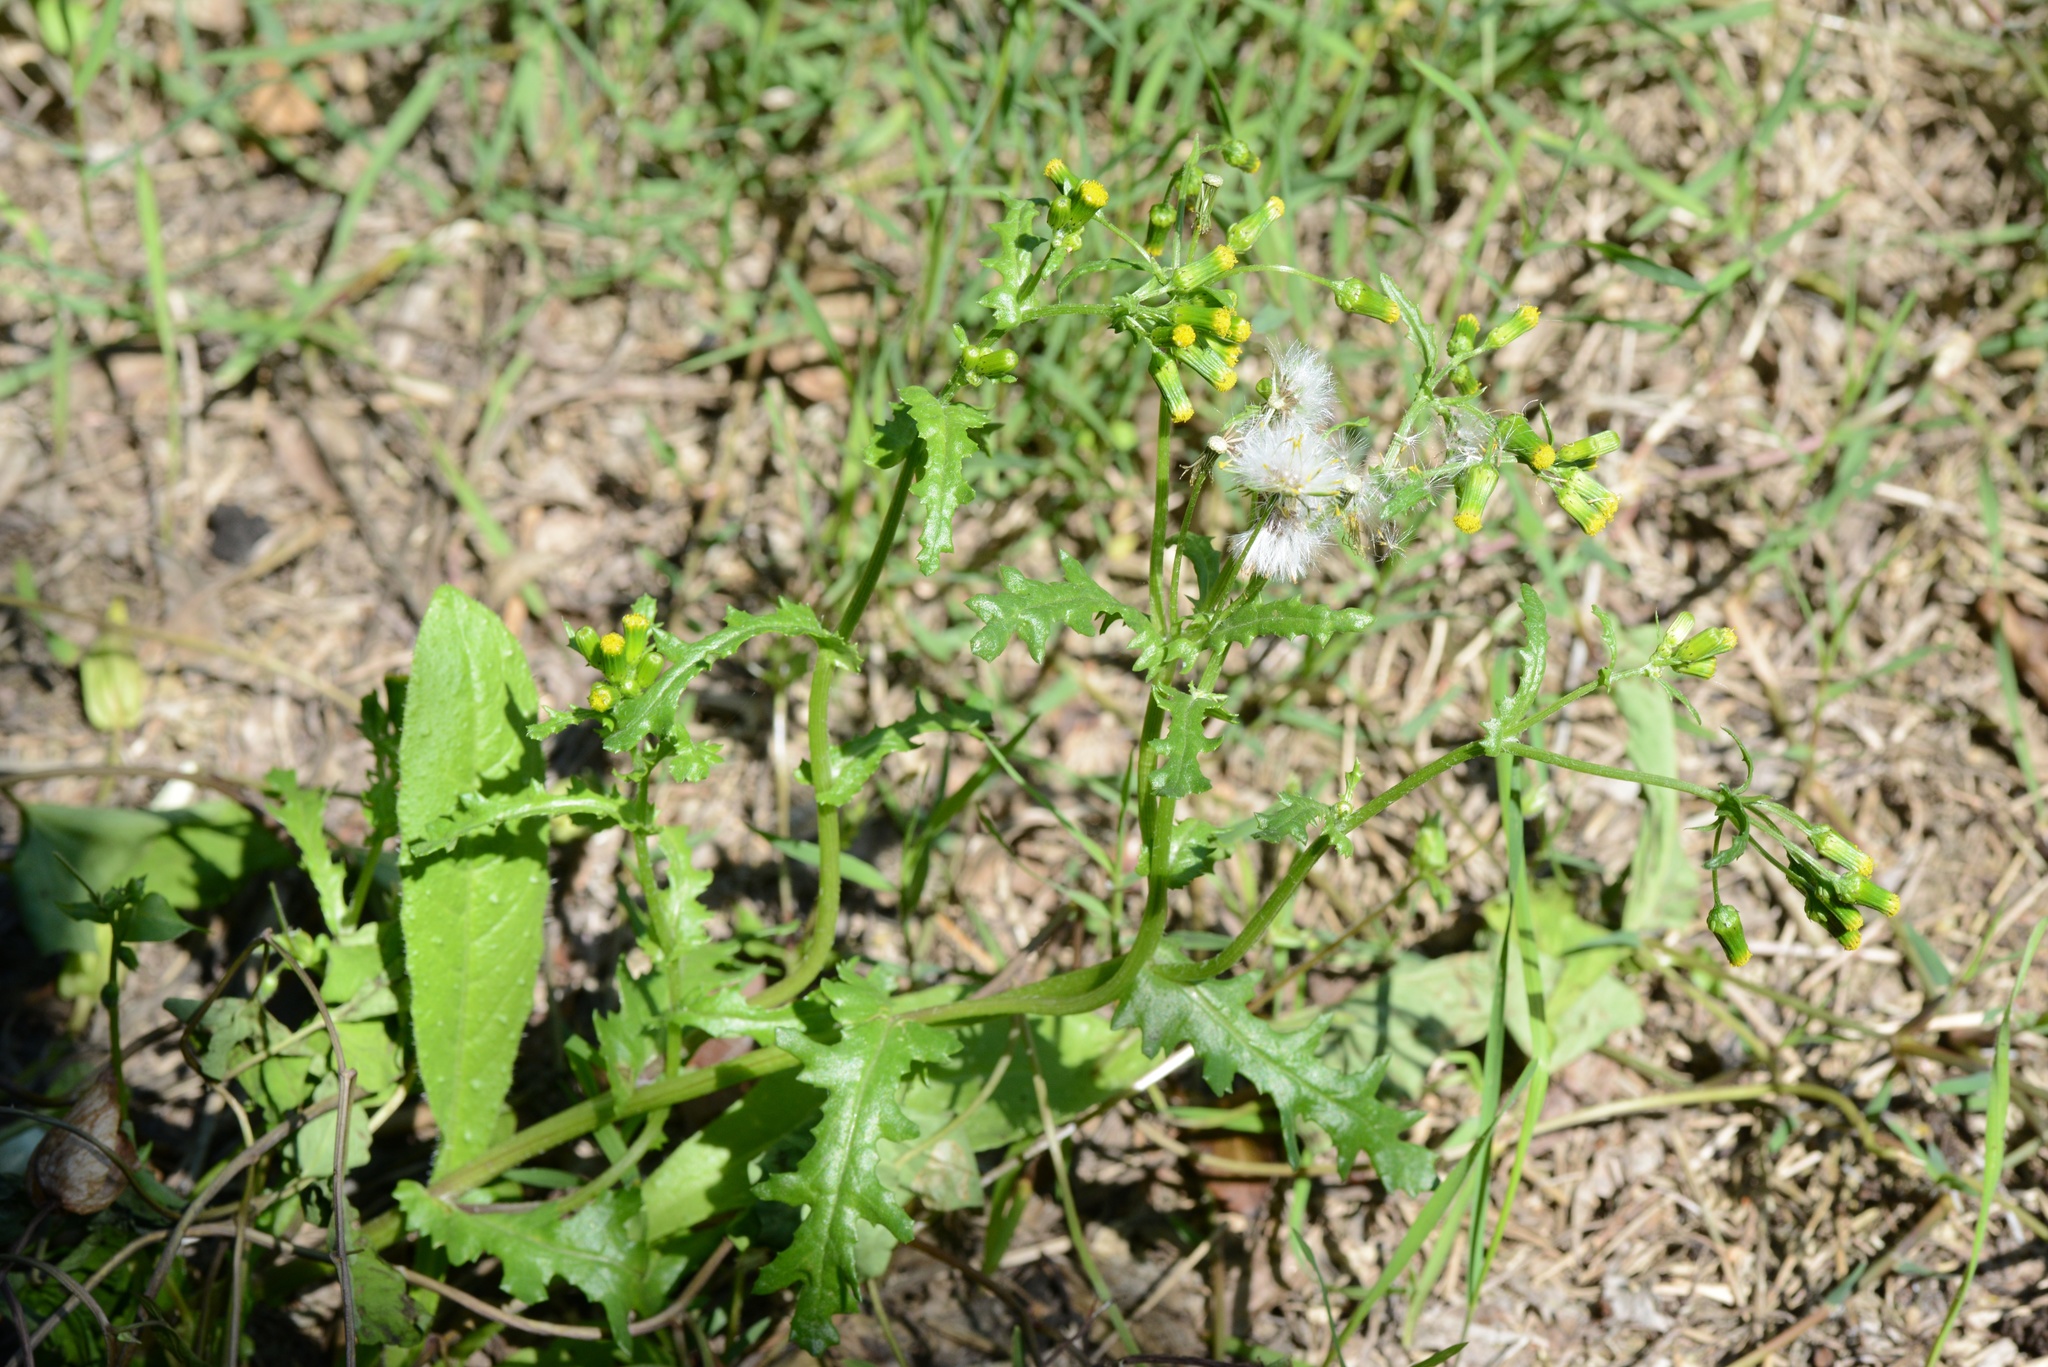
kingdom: Plantae
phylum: Tracheophyta
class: Magnoliopsida
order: Asterales
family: Asteraceae
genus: Senecio
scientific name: Senecio vulgaris
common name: Old-man-in-the-spring
